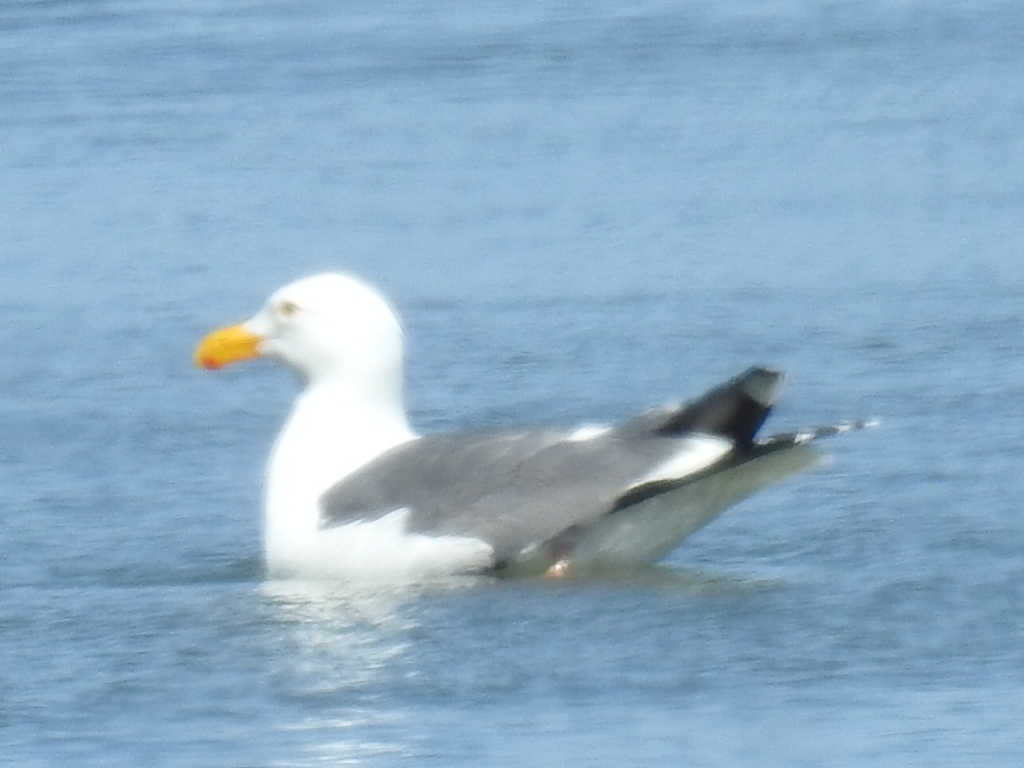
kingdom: Animalia
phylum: Chordata
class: Aves
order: Charadriiformes
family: Laridae
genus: Larus
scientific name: Larus occidentalis
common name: Western gull
